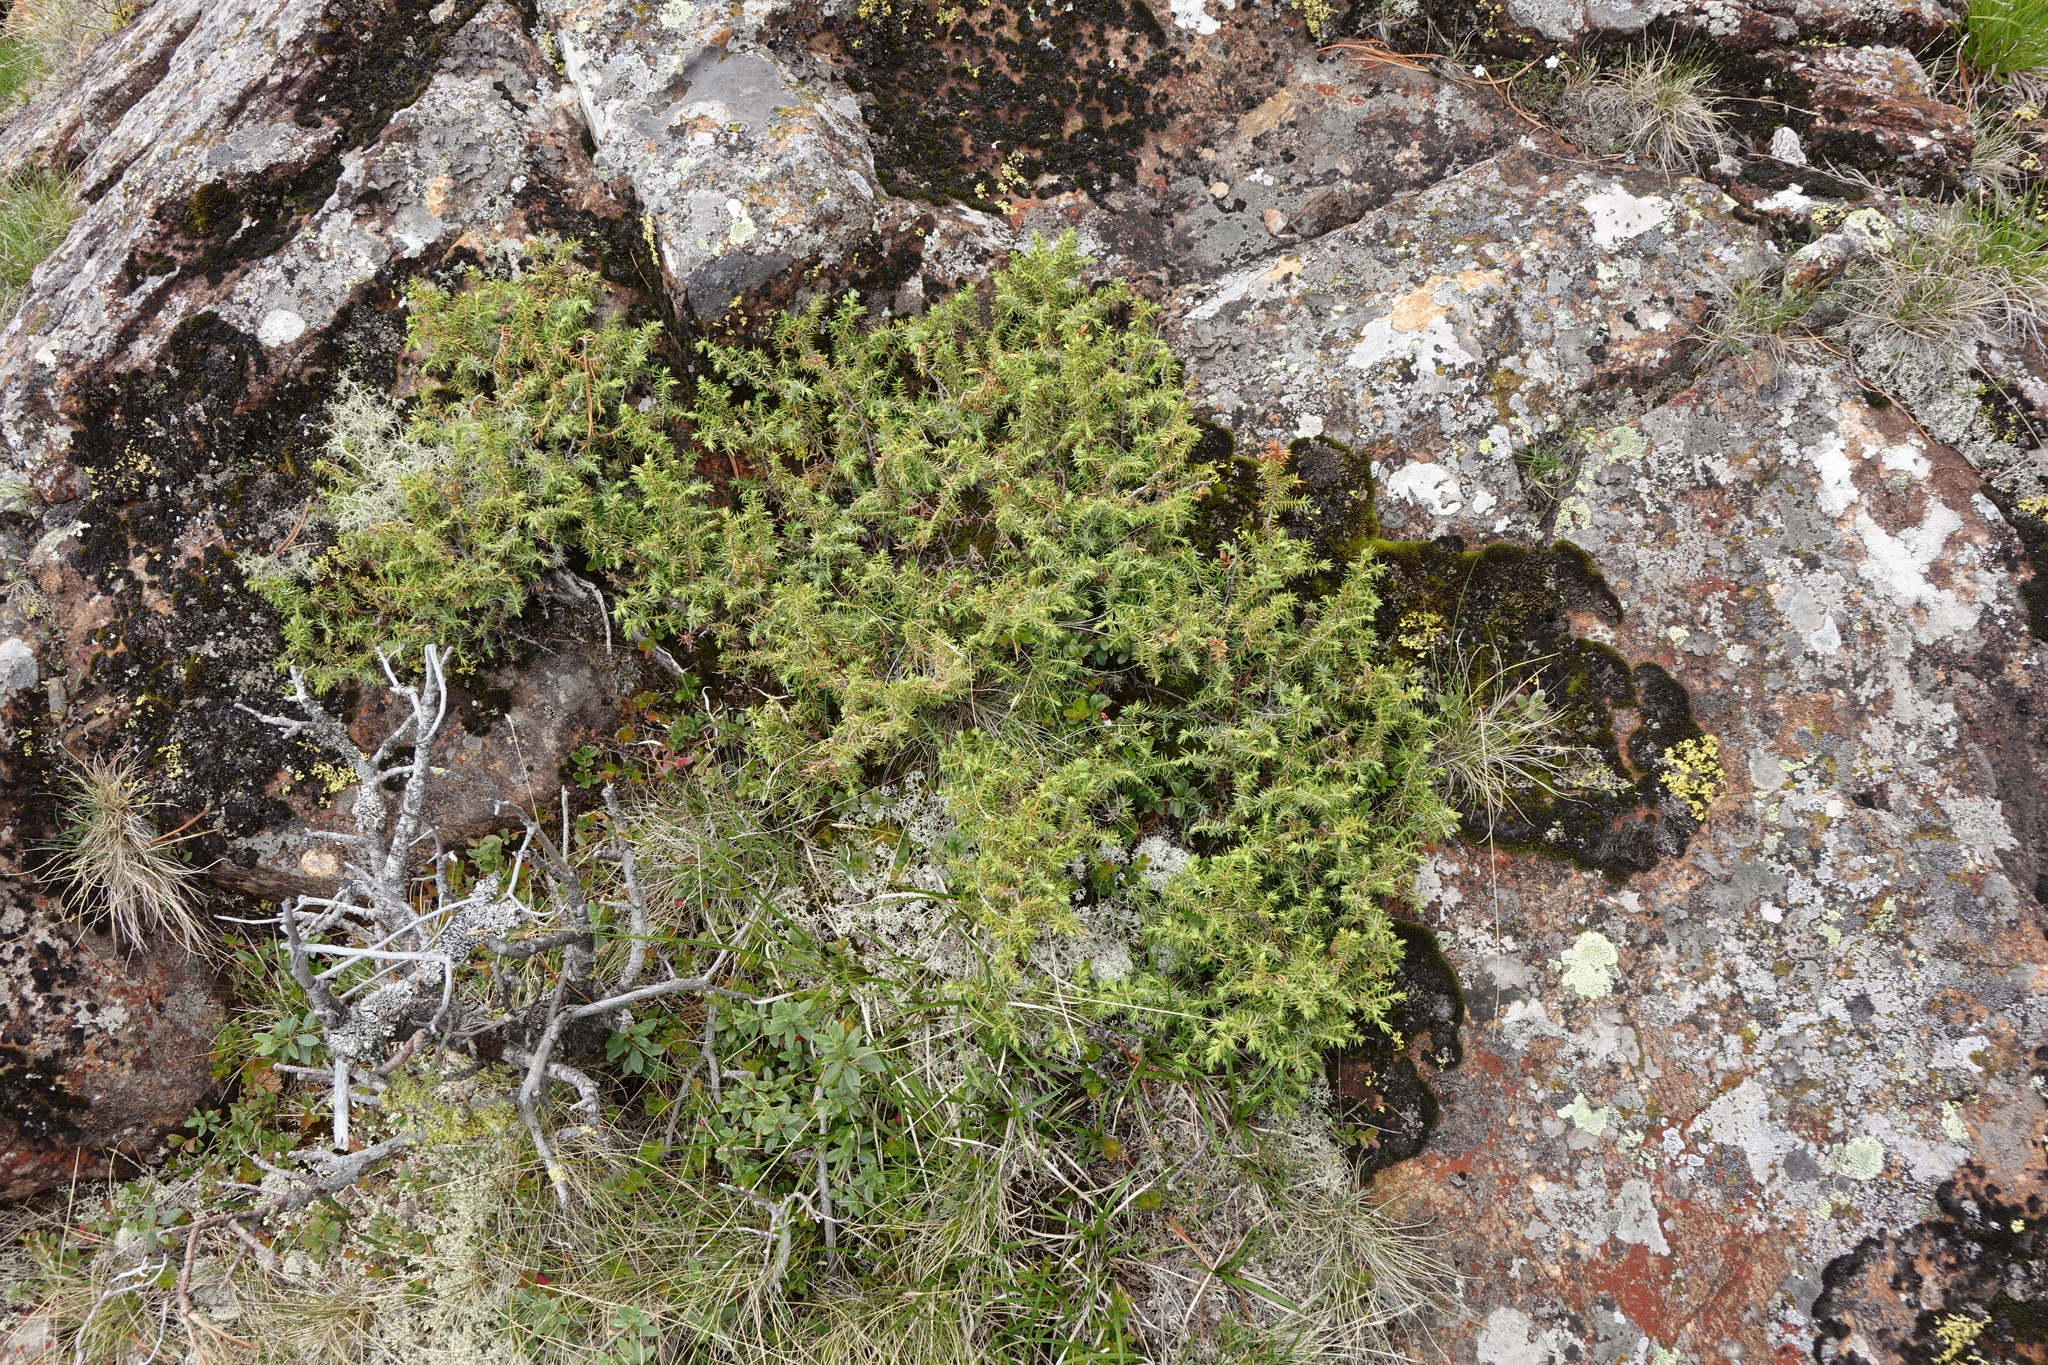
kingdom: Plantae
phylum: Tracheophyta
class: Pinopsida
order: Pinales
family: Cupressaceae
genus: Juniperus
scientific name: Juniperus communis
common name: Common juniper
